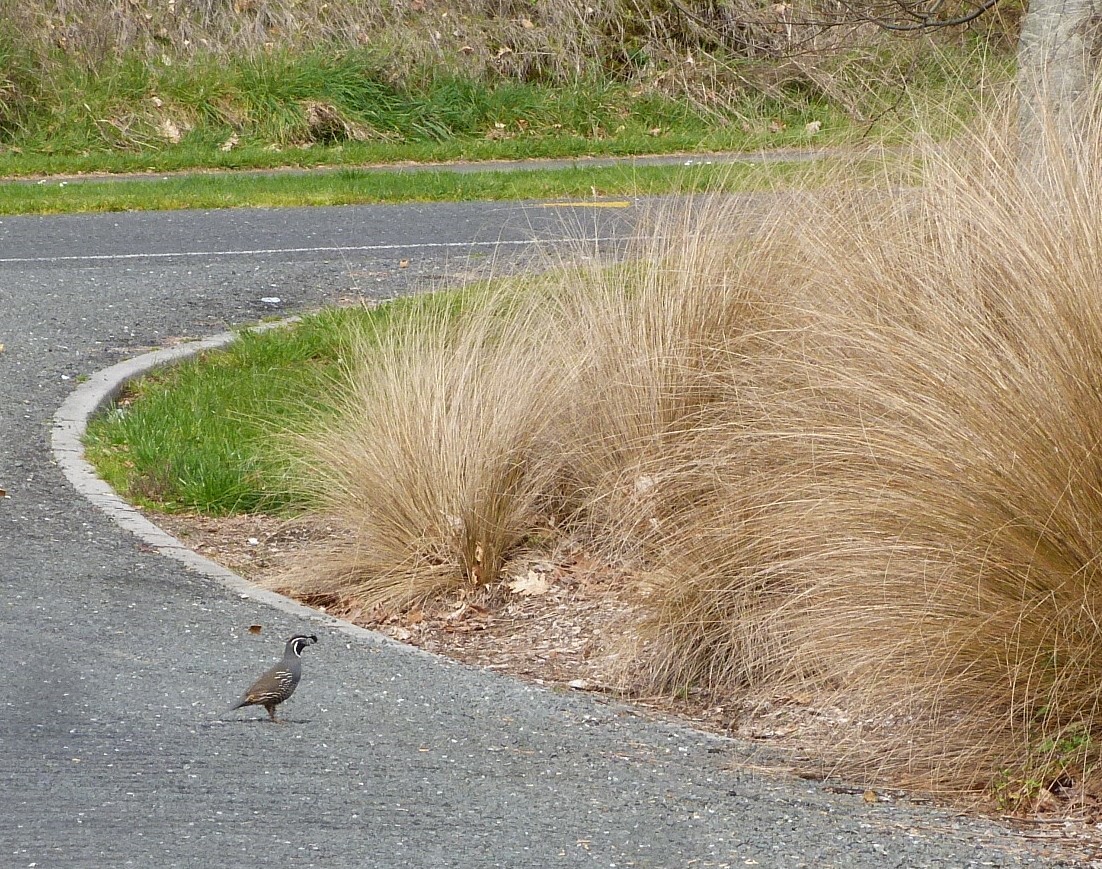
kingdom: Animalia
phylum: Chordata
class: Aves
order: Galliformes
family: Odontophoridae
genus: Callipepla
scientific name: Callipepla californica
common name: California quail
